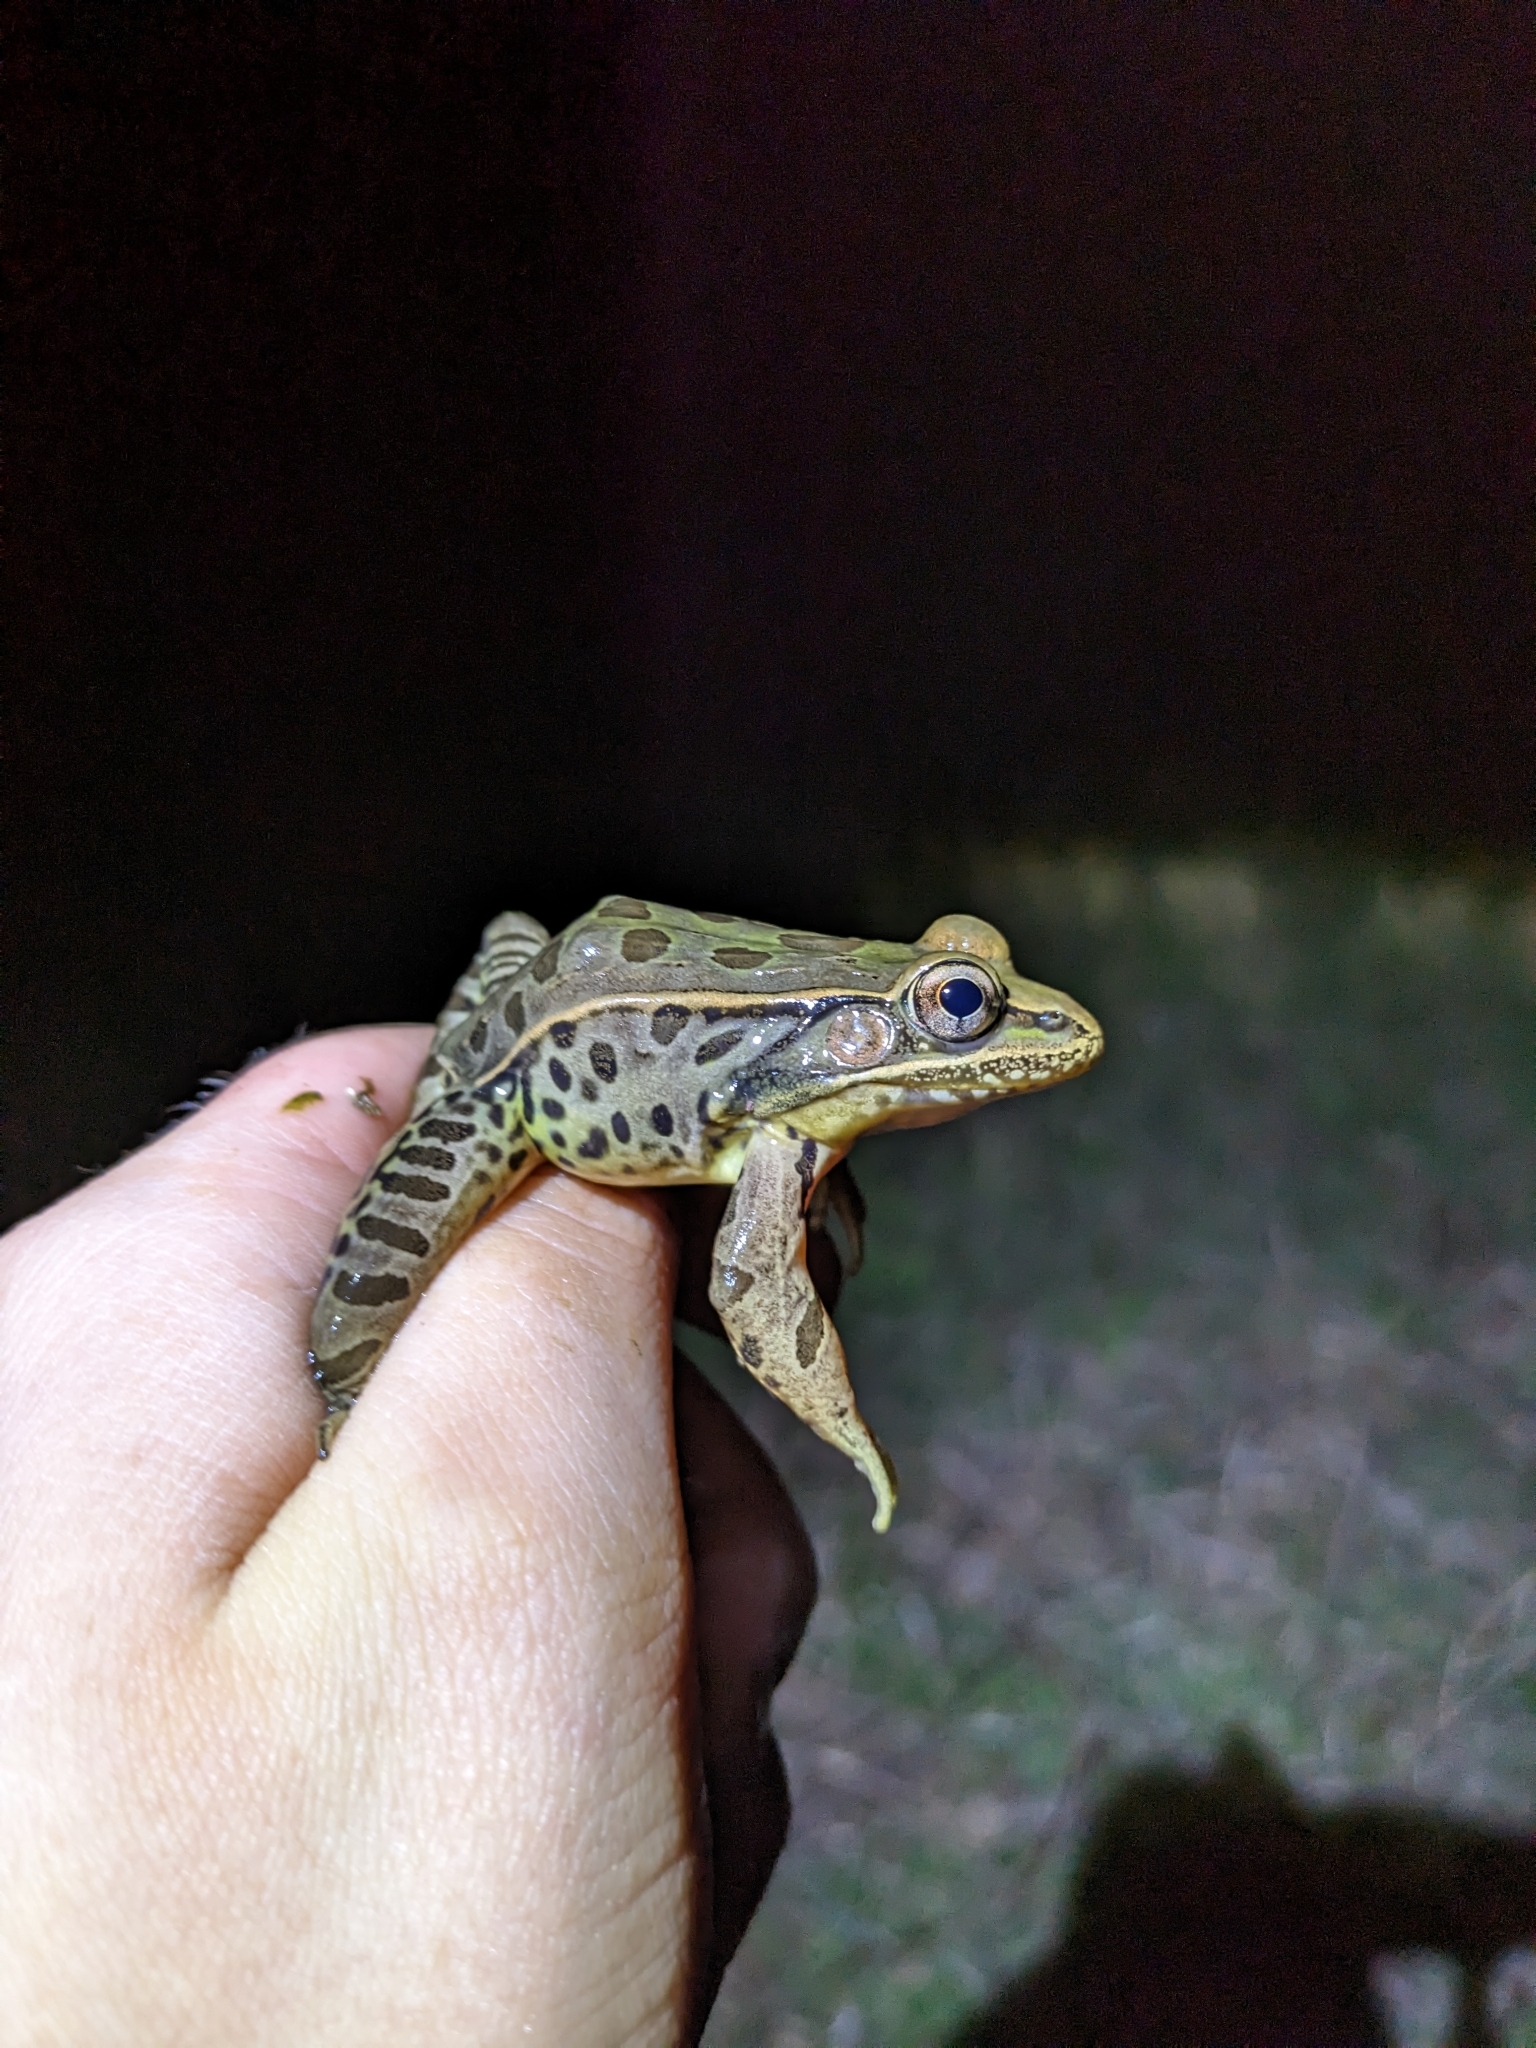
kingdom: Animalia
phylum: Chordata
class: Amphibia
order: Anura
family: Ranidae
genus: Lithobates
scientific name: Lithobates sphenocephalus
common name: Southern leopard frog
